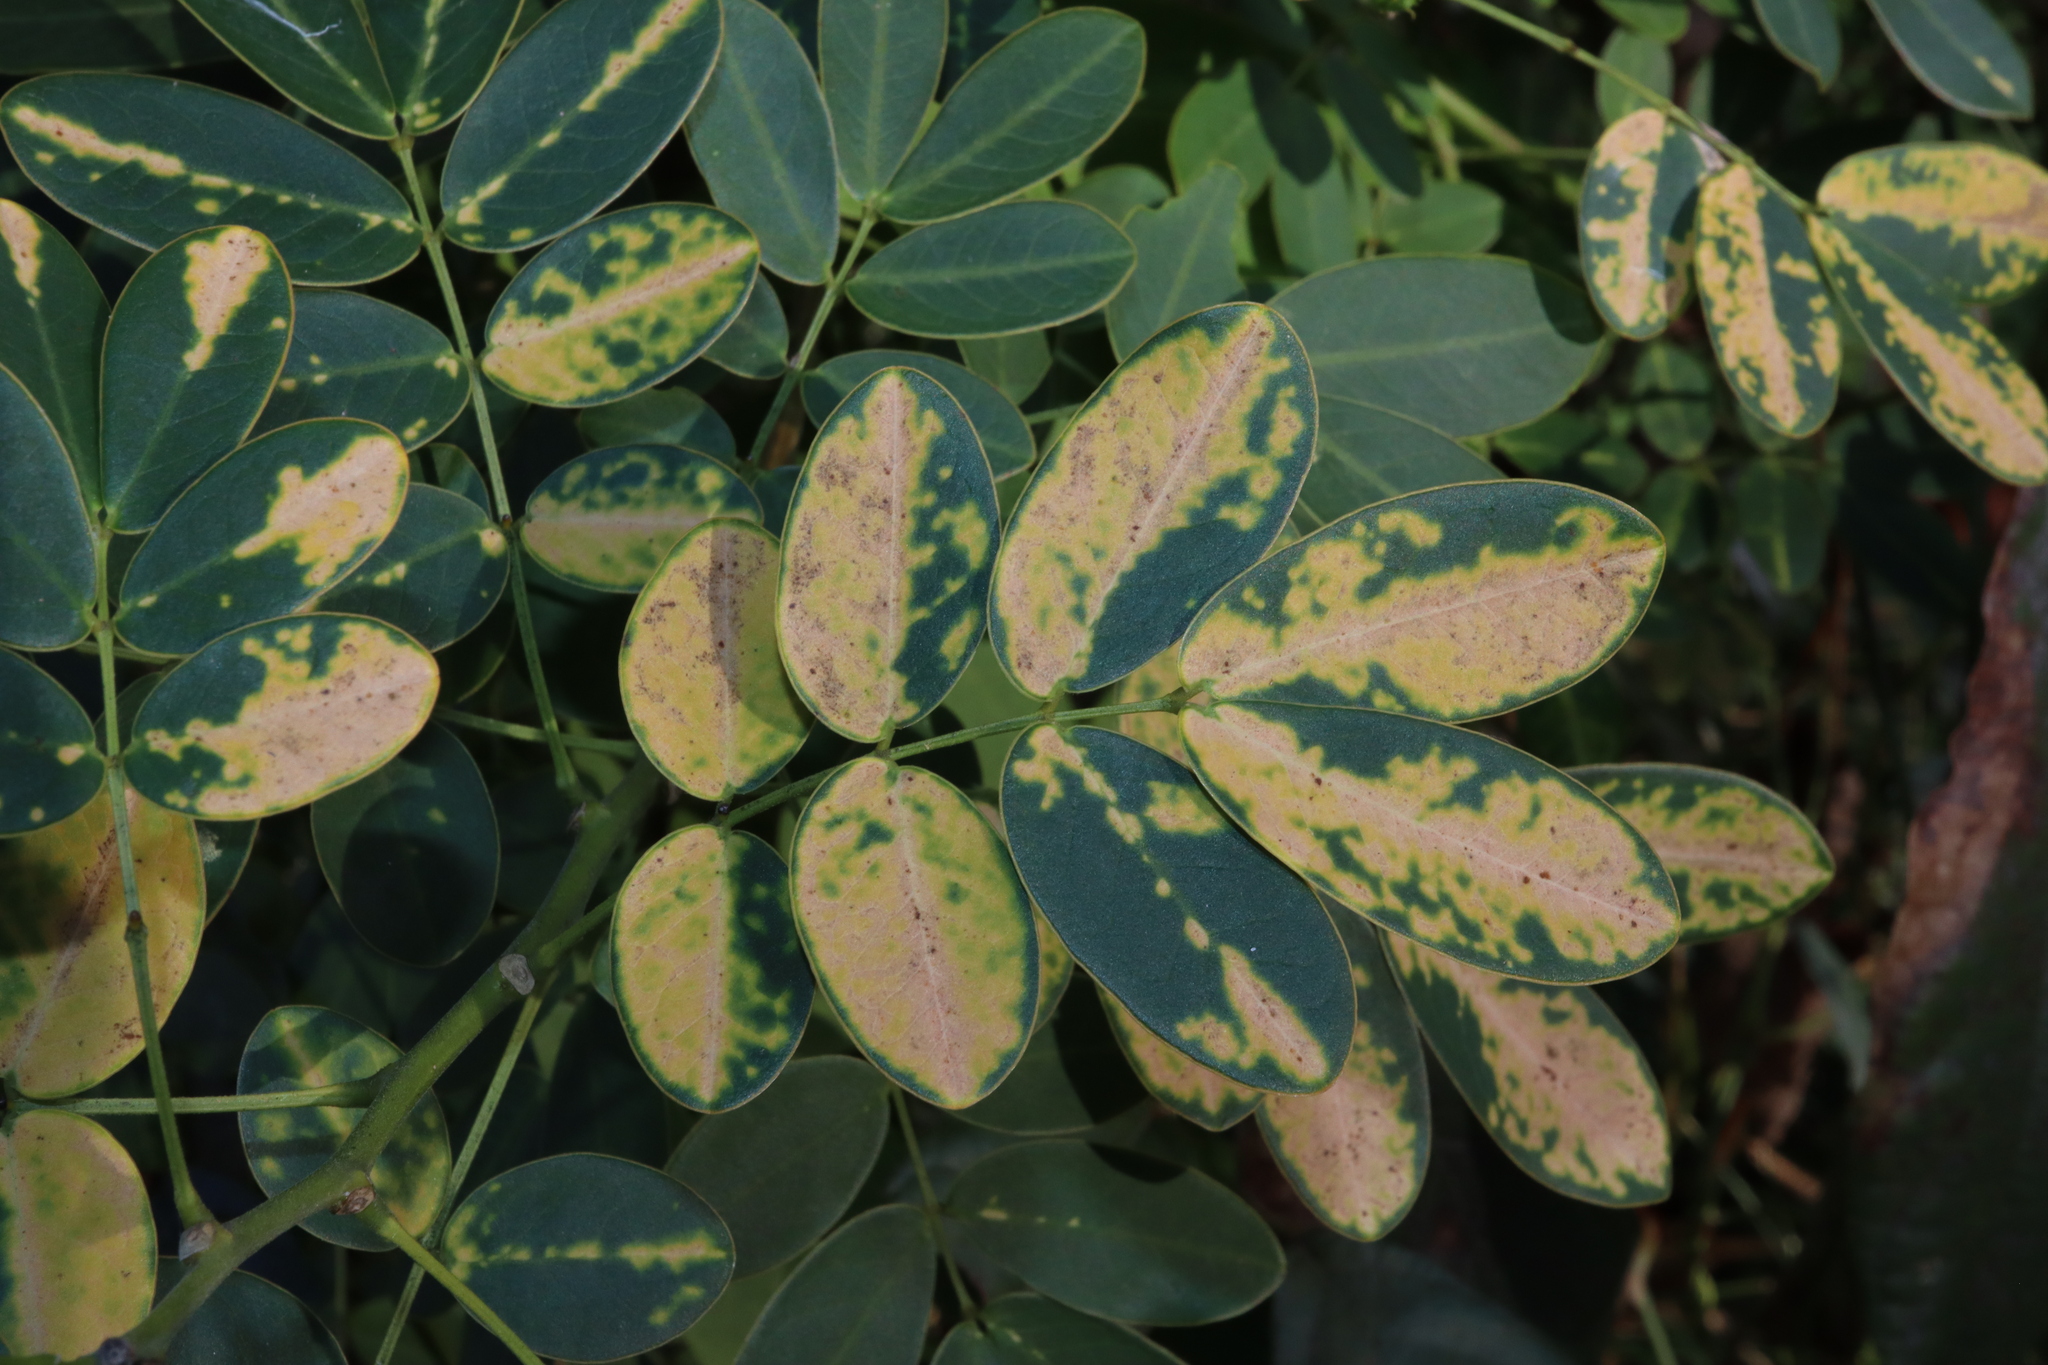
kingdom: Plantae
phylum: Tracheophyta
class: Magnoliopsida
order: Fabales
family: Fabaceae
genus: Senna
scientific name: Senna pendula
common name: Easter cassia
